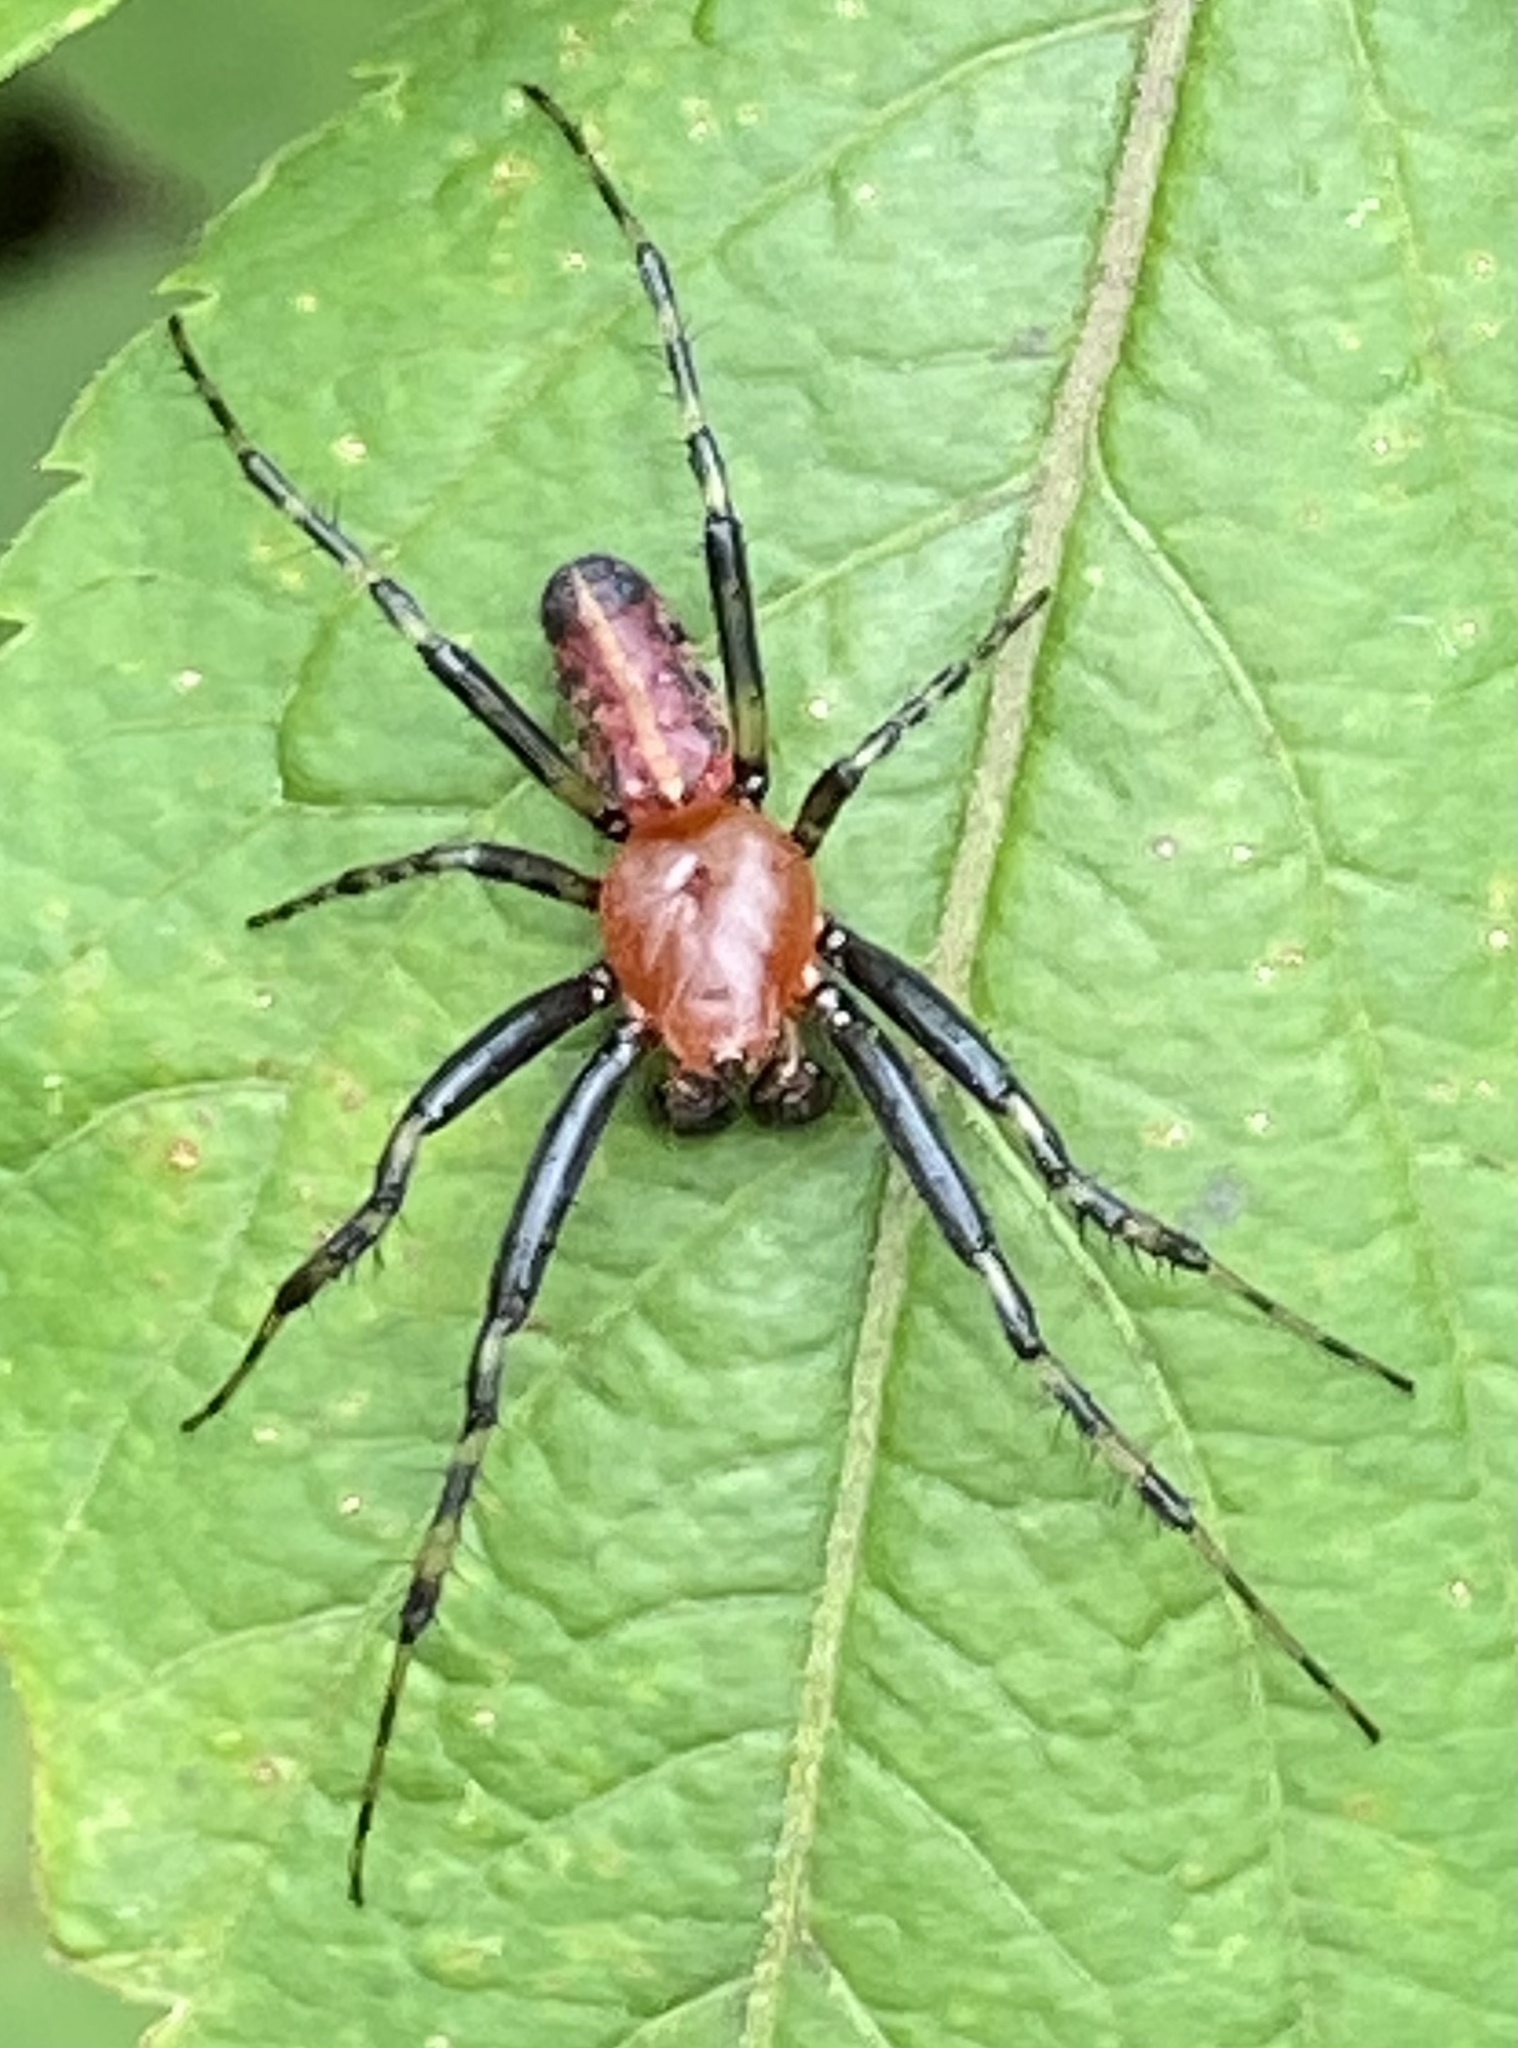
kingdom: Animalia
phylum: Arthropoda
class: Arachnida
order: Araneae
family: Araneidae
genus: Alpaida
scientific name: Alpaida grayi
